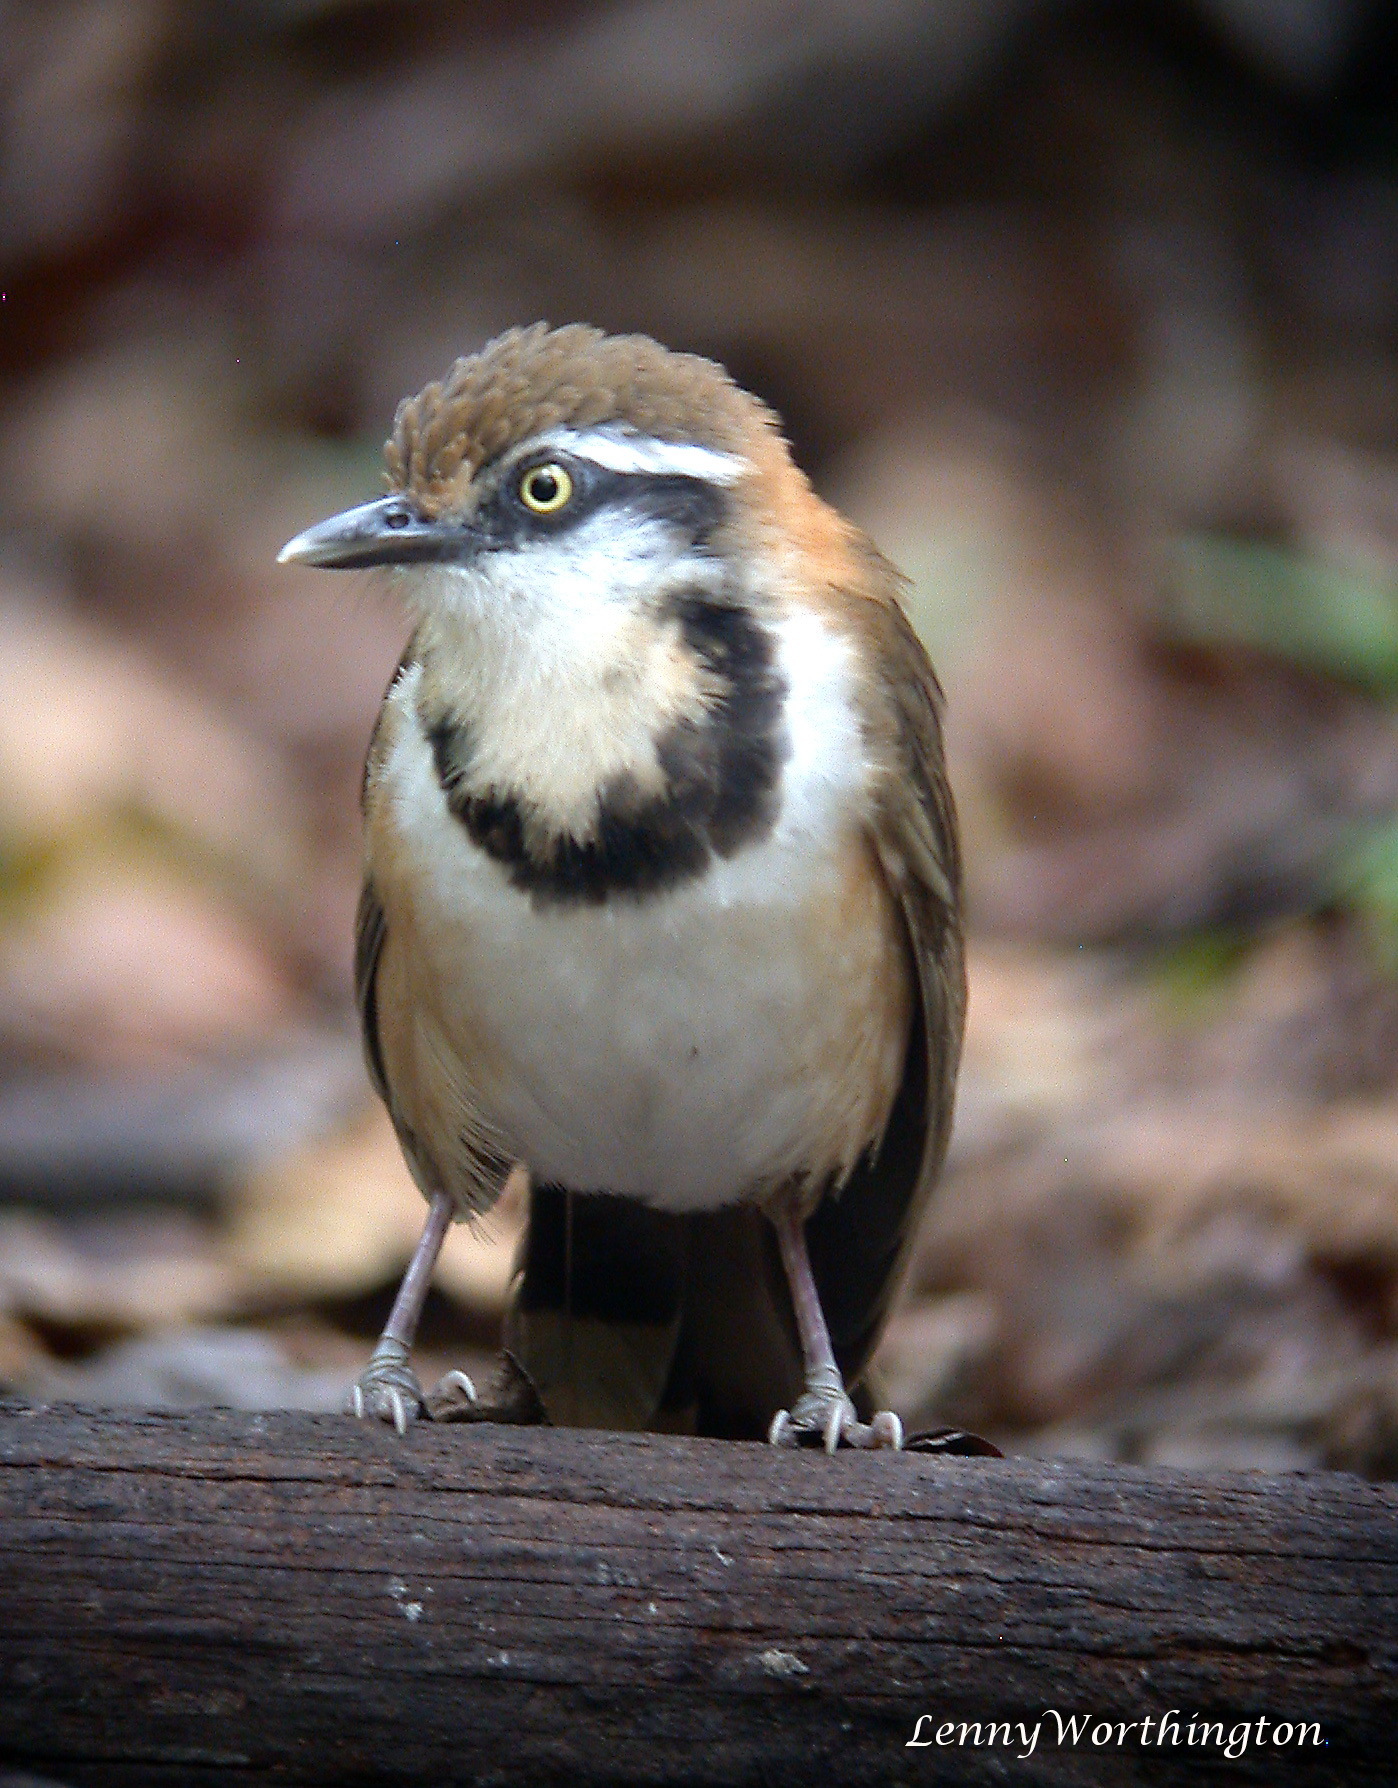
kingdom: Animalia
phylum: Chordata
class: Aves
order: Passeriformes
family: Leiothrichidae
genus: Garrulax
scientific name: Garrulax monileger
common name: Lesser necklaced laughingthrush
